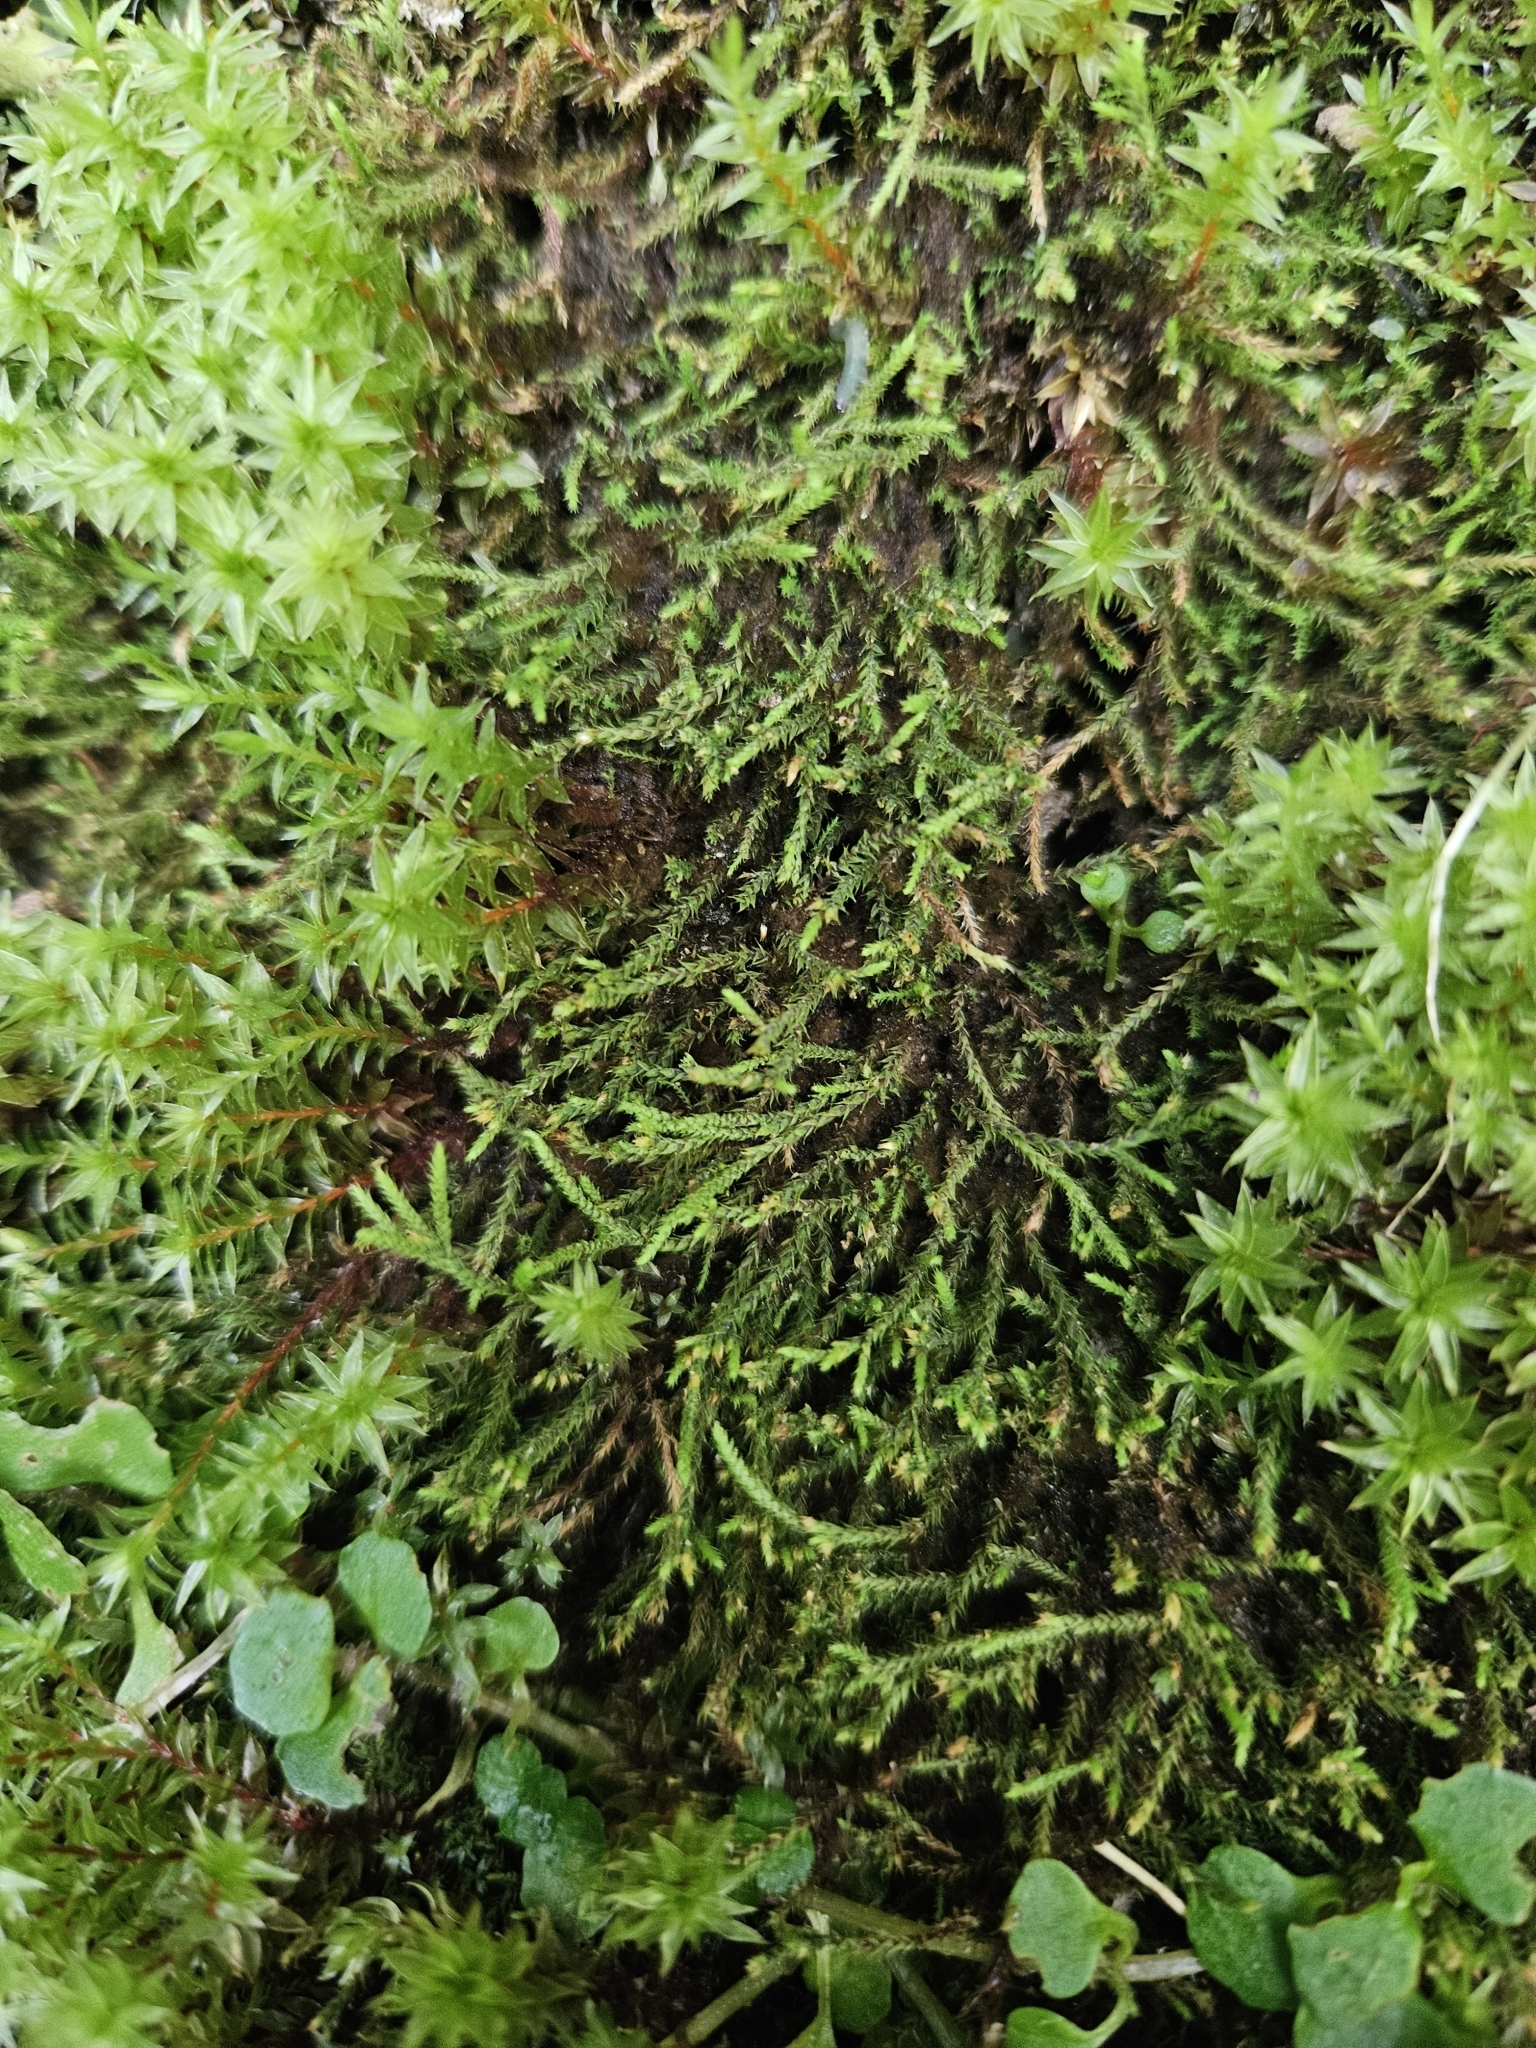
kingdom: Plantae
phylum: Bryophyta
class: Bryopsida
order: Bartramiales
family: Bartramiaceae
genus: Philonotis
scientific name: Philonotis fontana
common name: Fountain apple-moss
